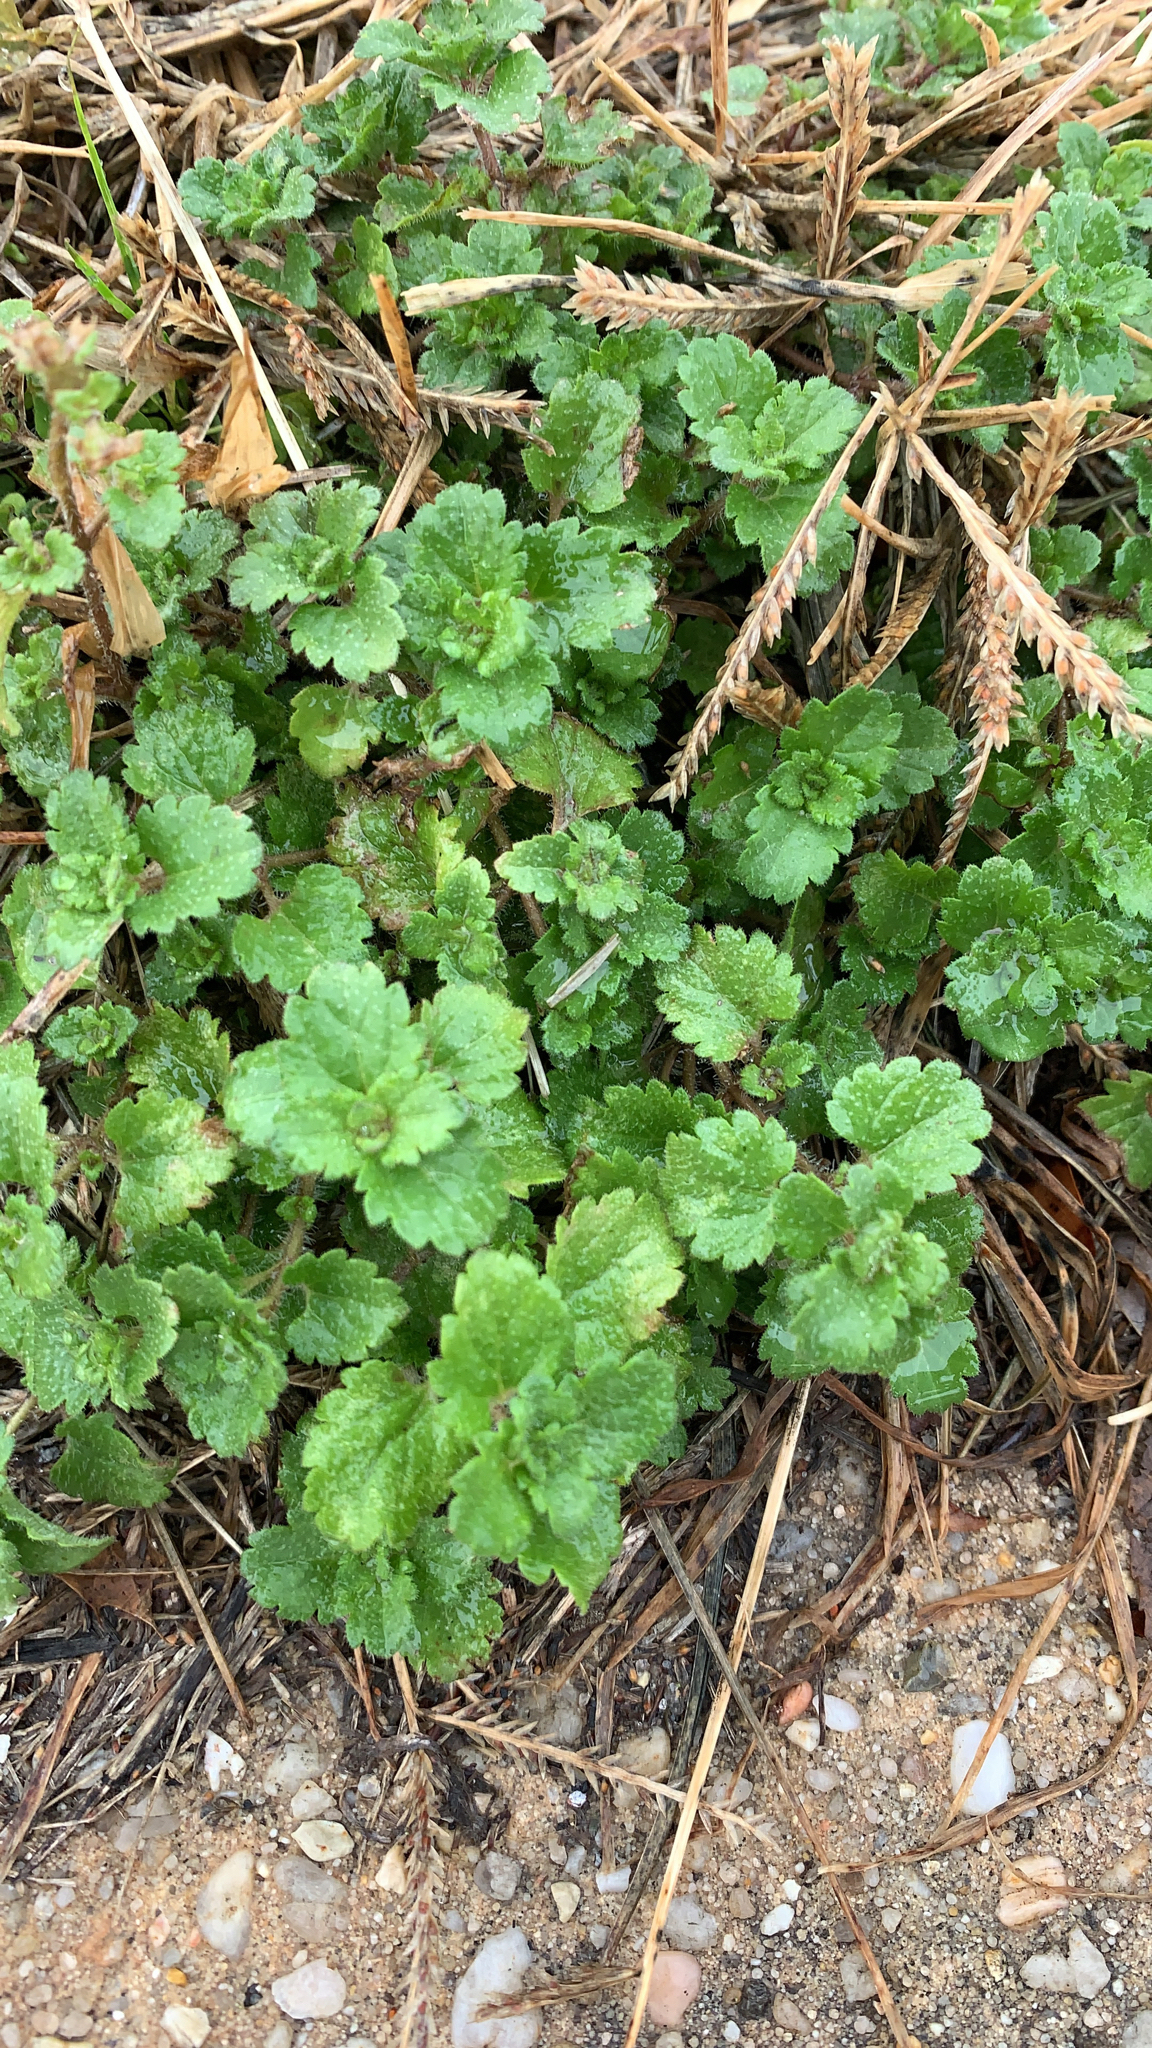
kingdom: Plantae
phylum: Tracheophyta
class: Magnoliopsida
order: Lamiales
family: Plantaginaceae
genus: Veronica
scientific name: Veronica persica
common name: Common field-speedwell
